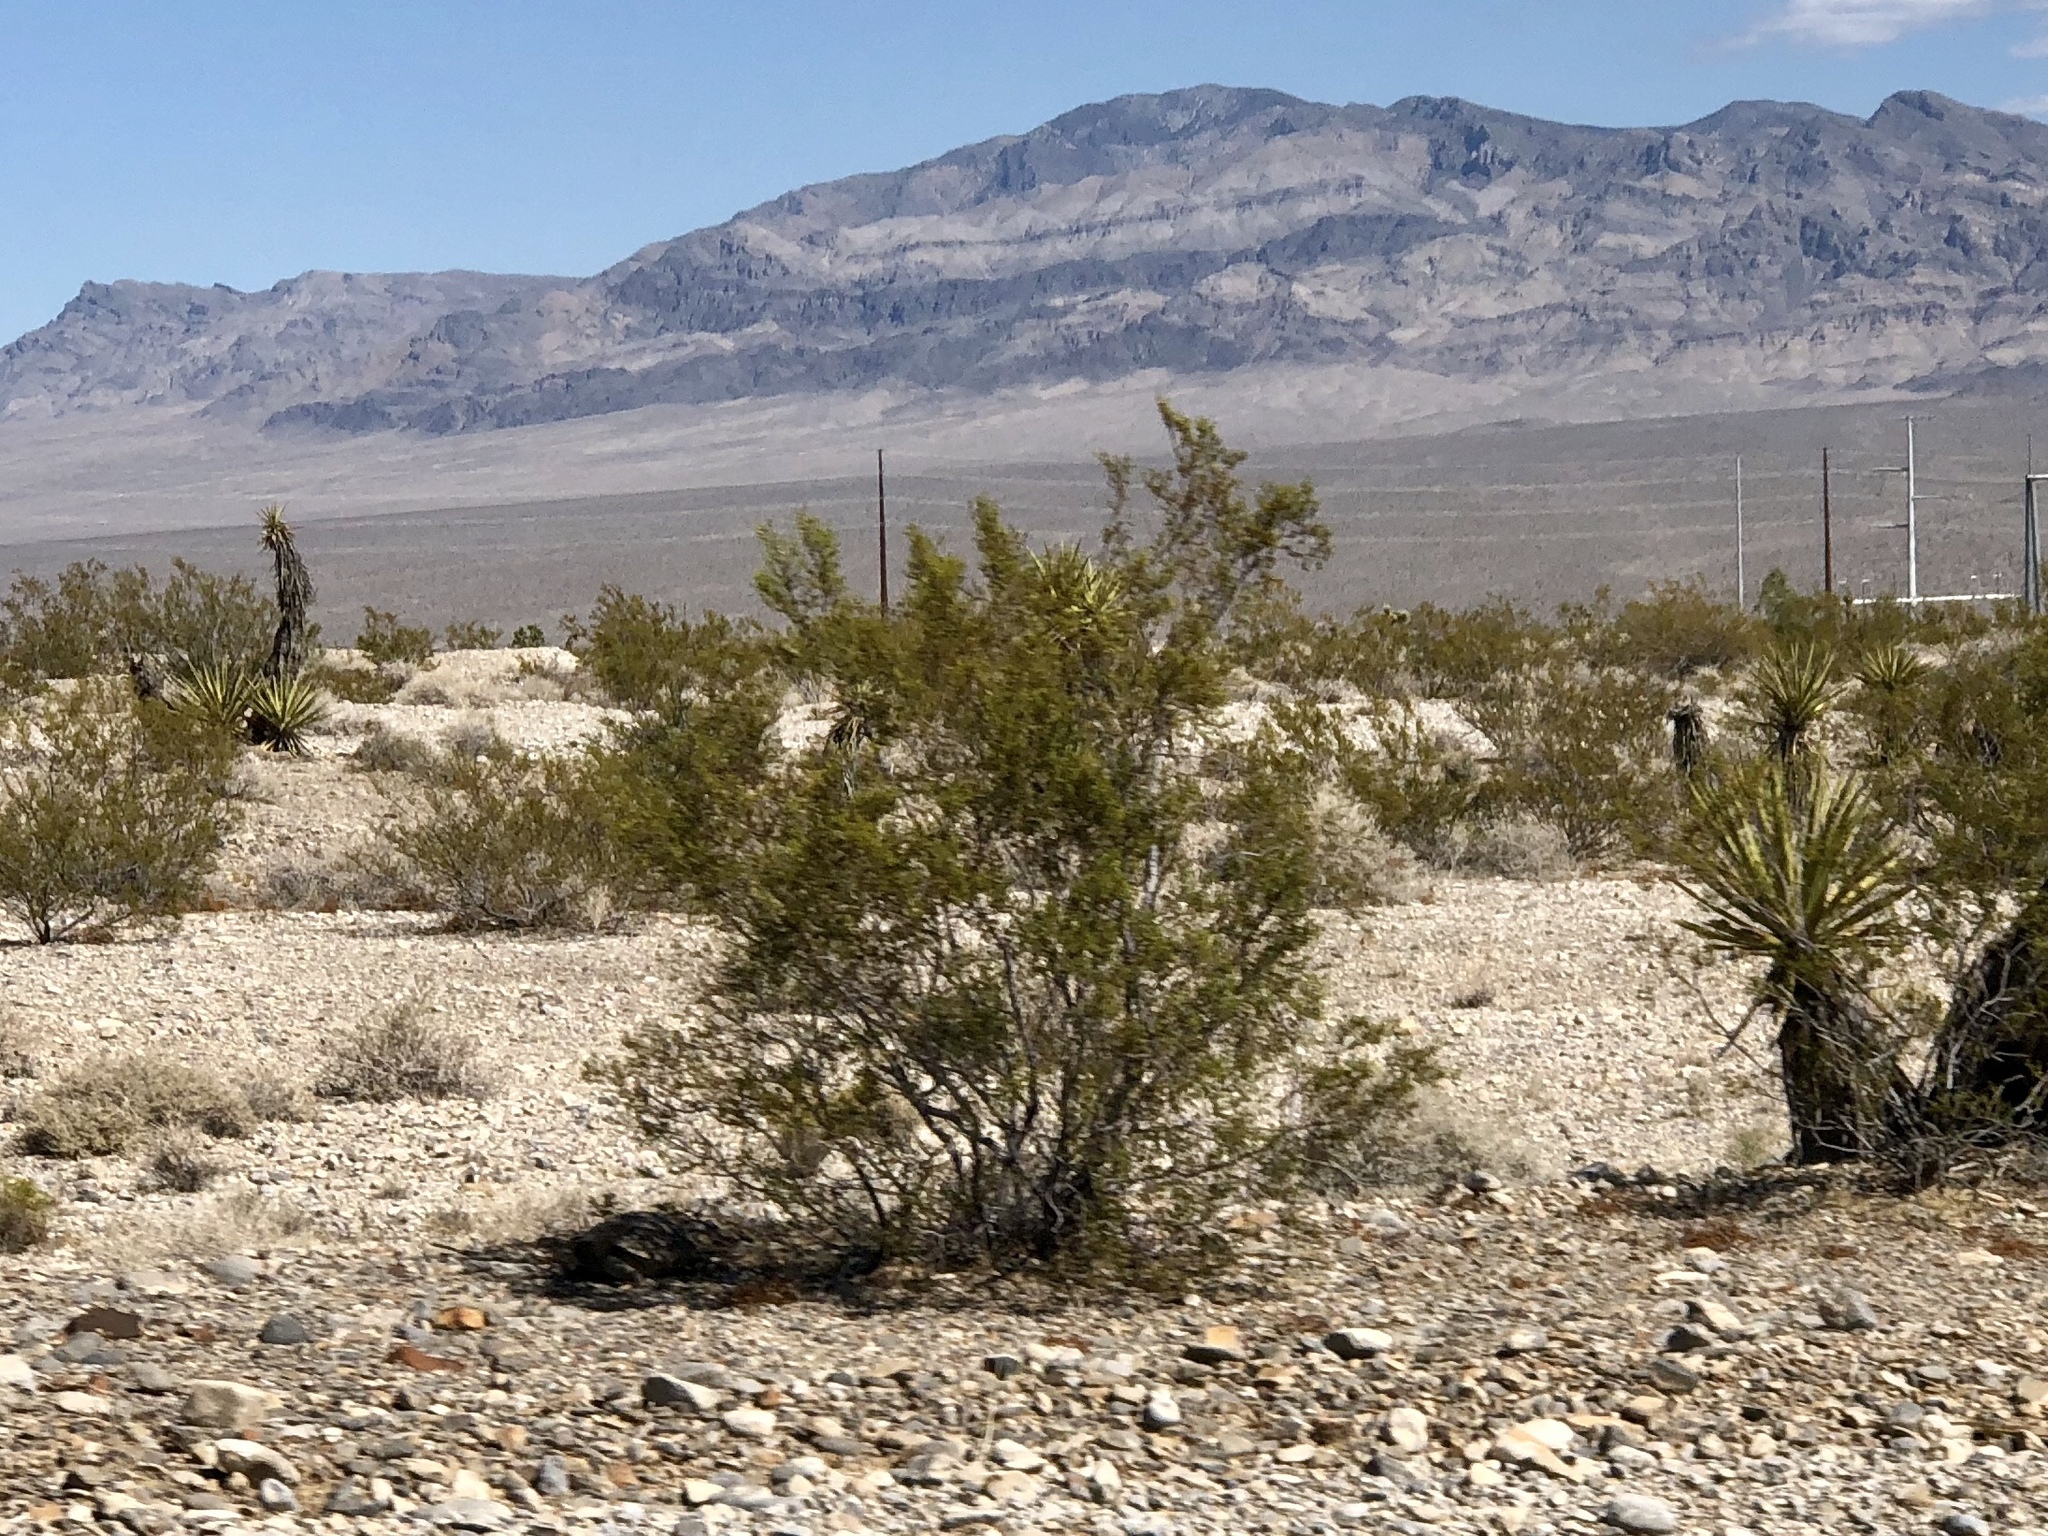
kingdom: Plantae
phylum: Tracheophyta
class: Magnoliopsida
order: Zygophyllales
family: Zygophyllaceae
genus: Larrea
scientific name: Larrea tridentata
